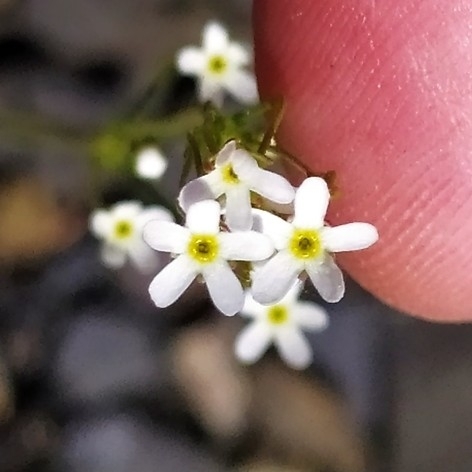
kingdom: Plantae
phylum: Tracheophyta
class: Magnoliopsida
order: Ericales
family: Primulaceae
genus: Androsace
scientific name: Androsace septentrionalis
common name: Hairy northern fairy-candelabra
